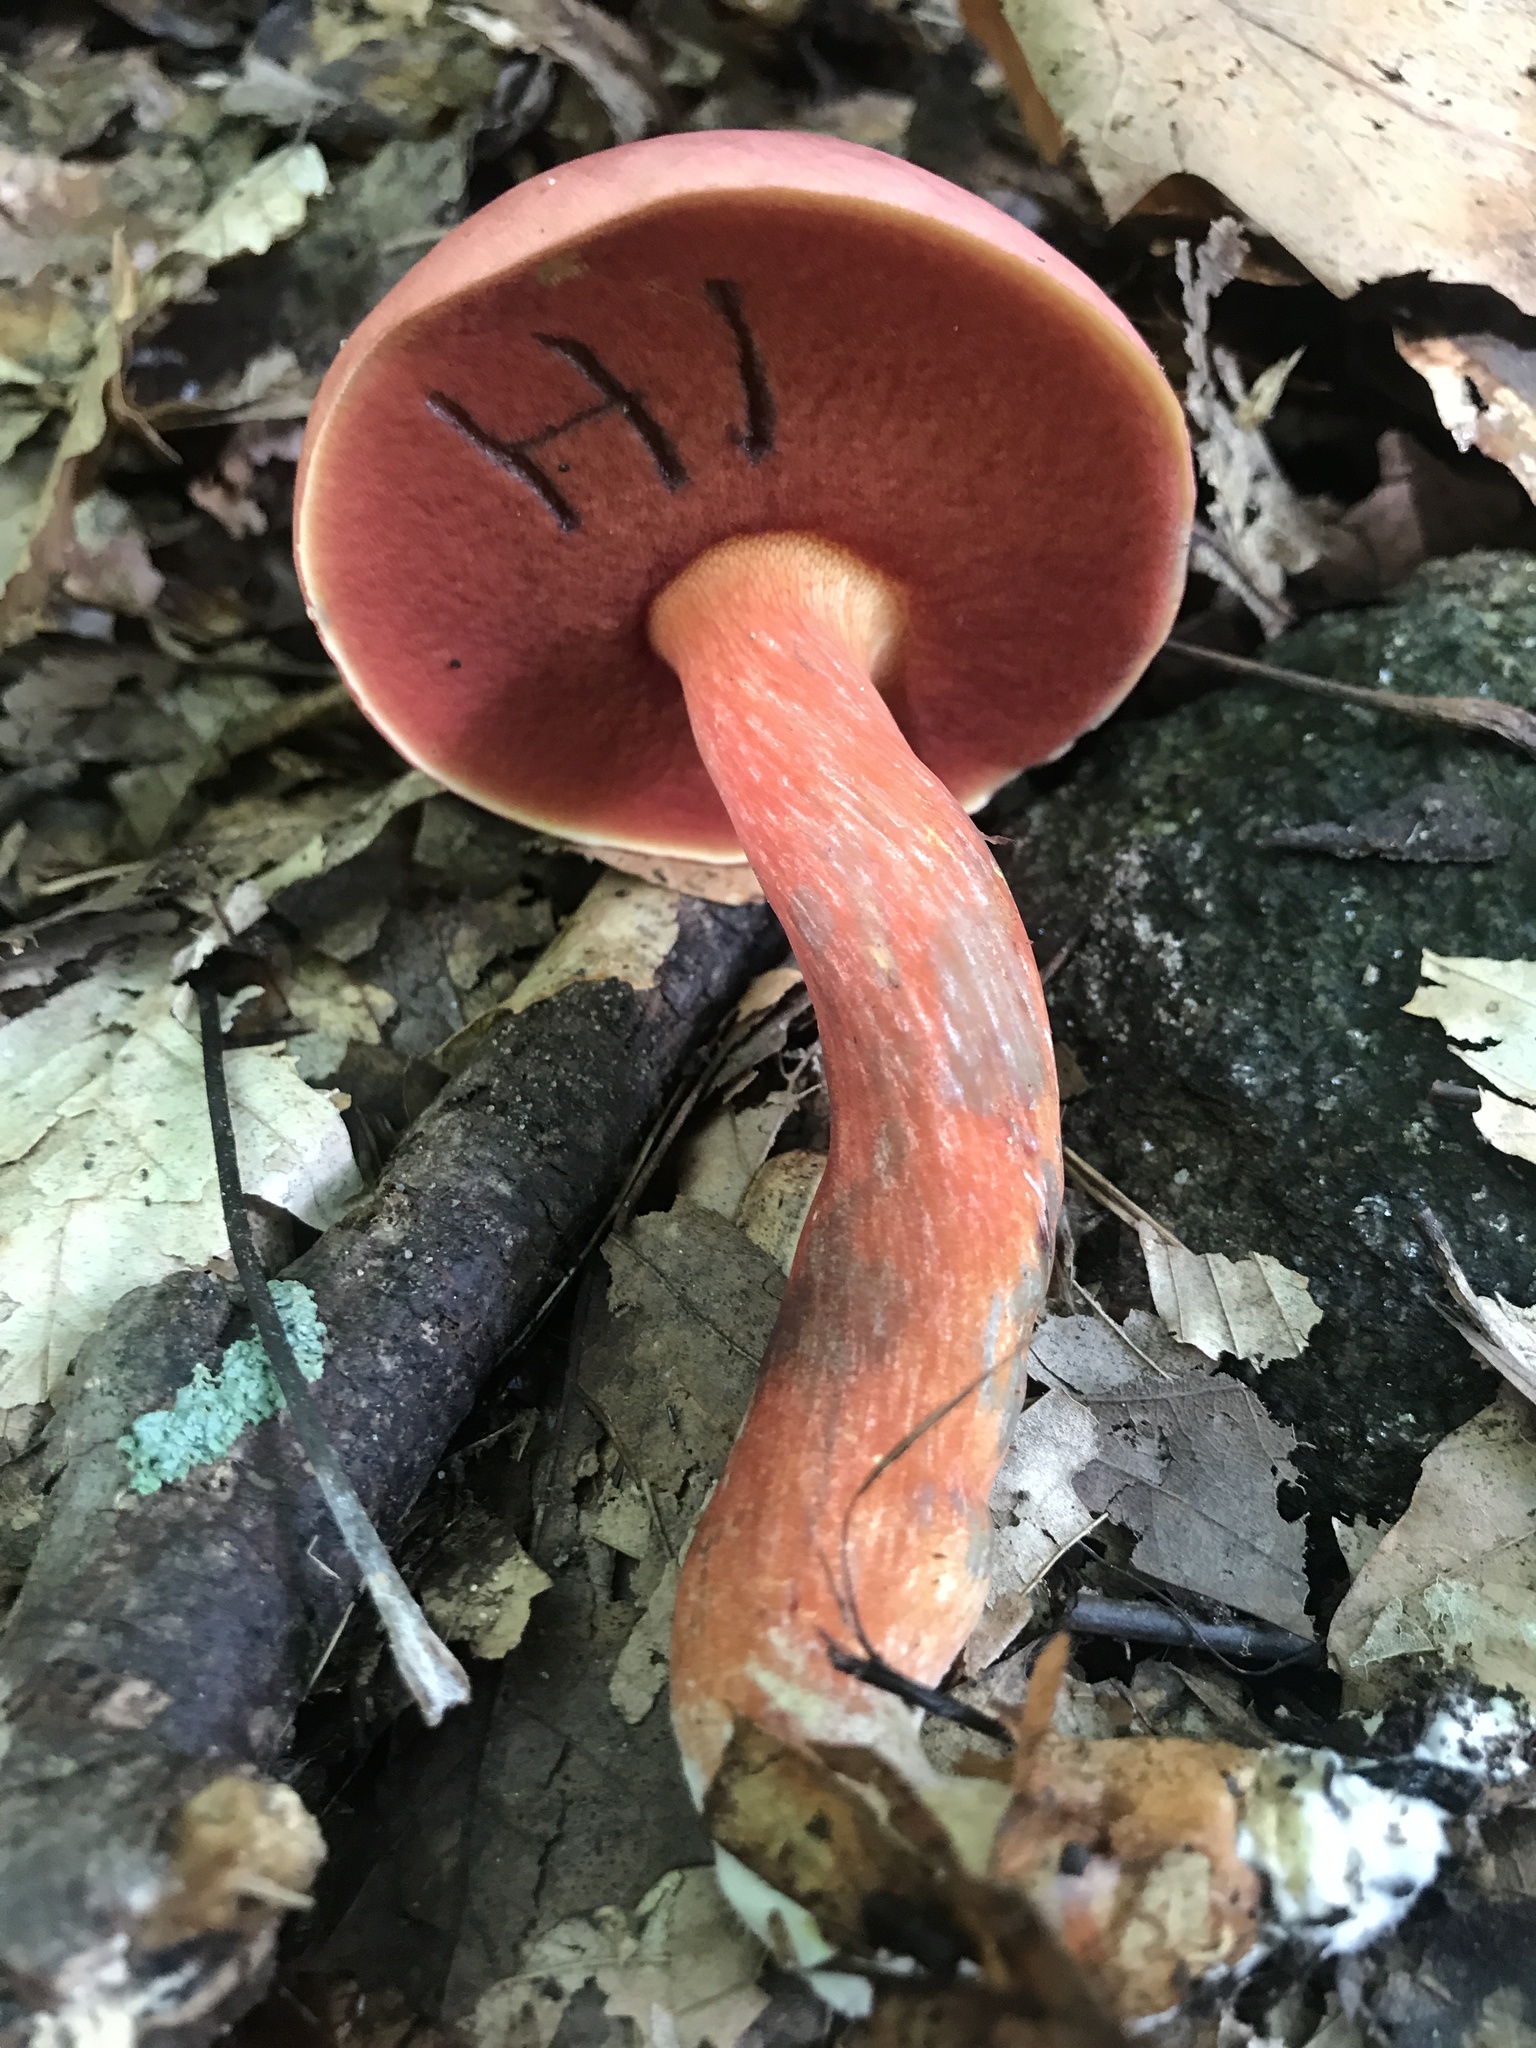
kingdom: Fungi
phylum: Basidiomycota
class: Agaricomycetes
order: Boletales
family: Boletaceae
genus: Boletus
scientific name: Boletus carminiporus
